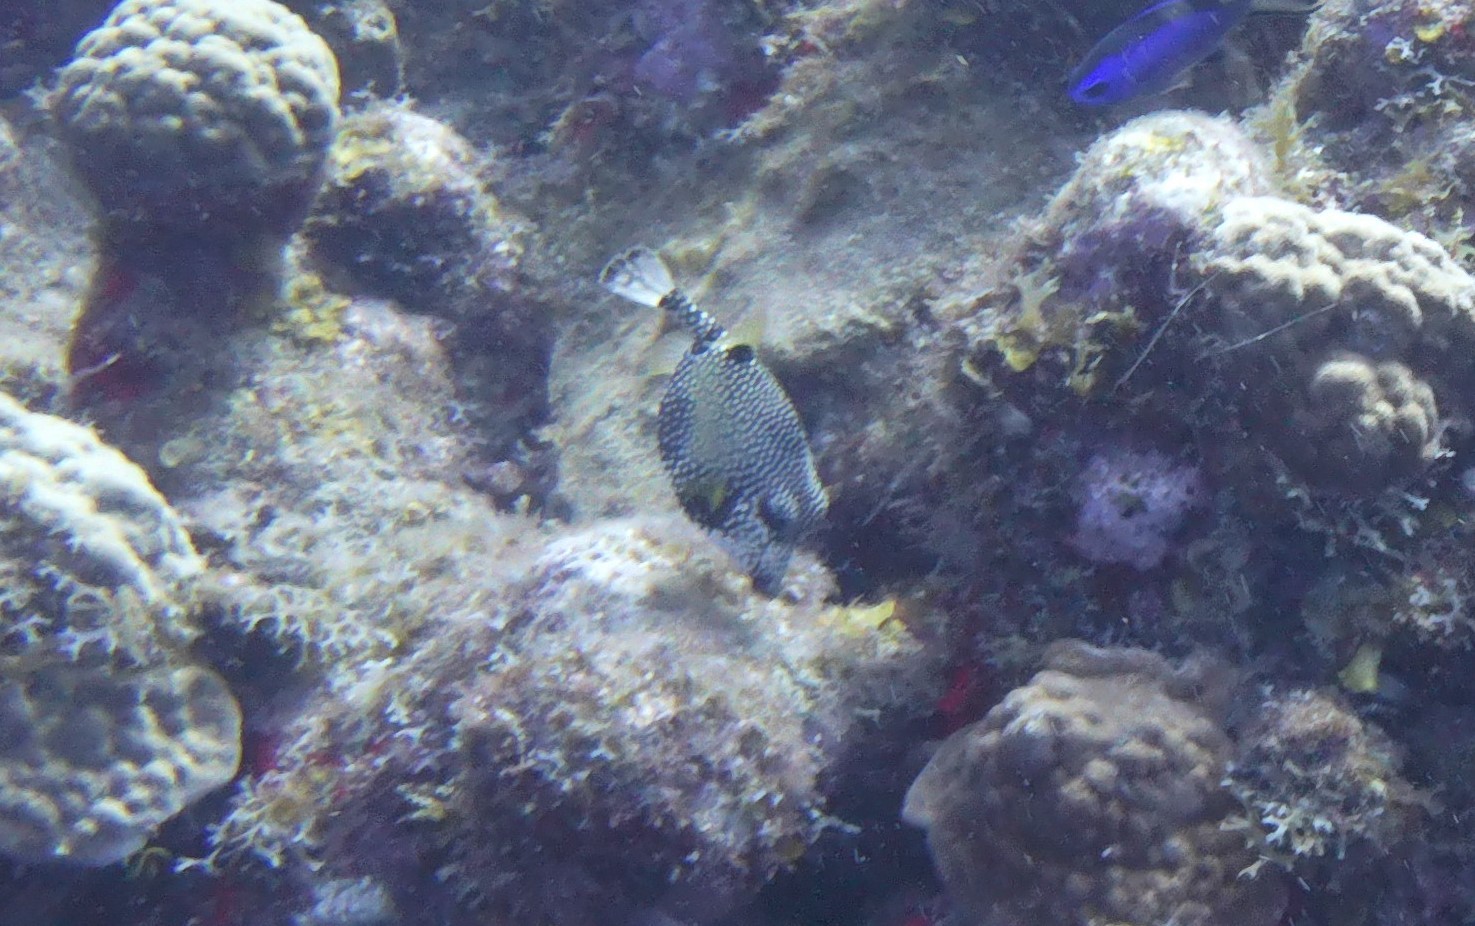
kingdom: Animalia
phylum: Chordata
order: Tetraodontiformes
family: Ostraciidae
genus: Lactophrys
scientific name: Lactophrys triqueter
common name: Smooth trunkfish
